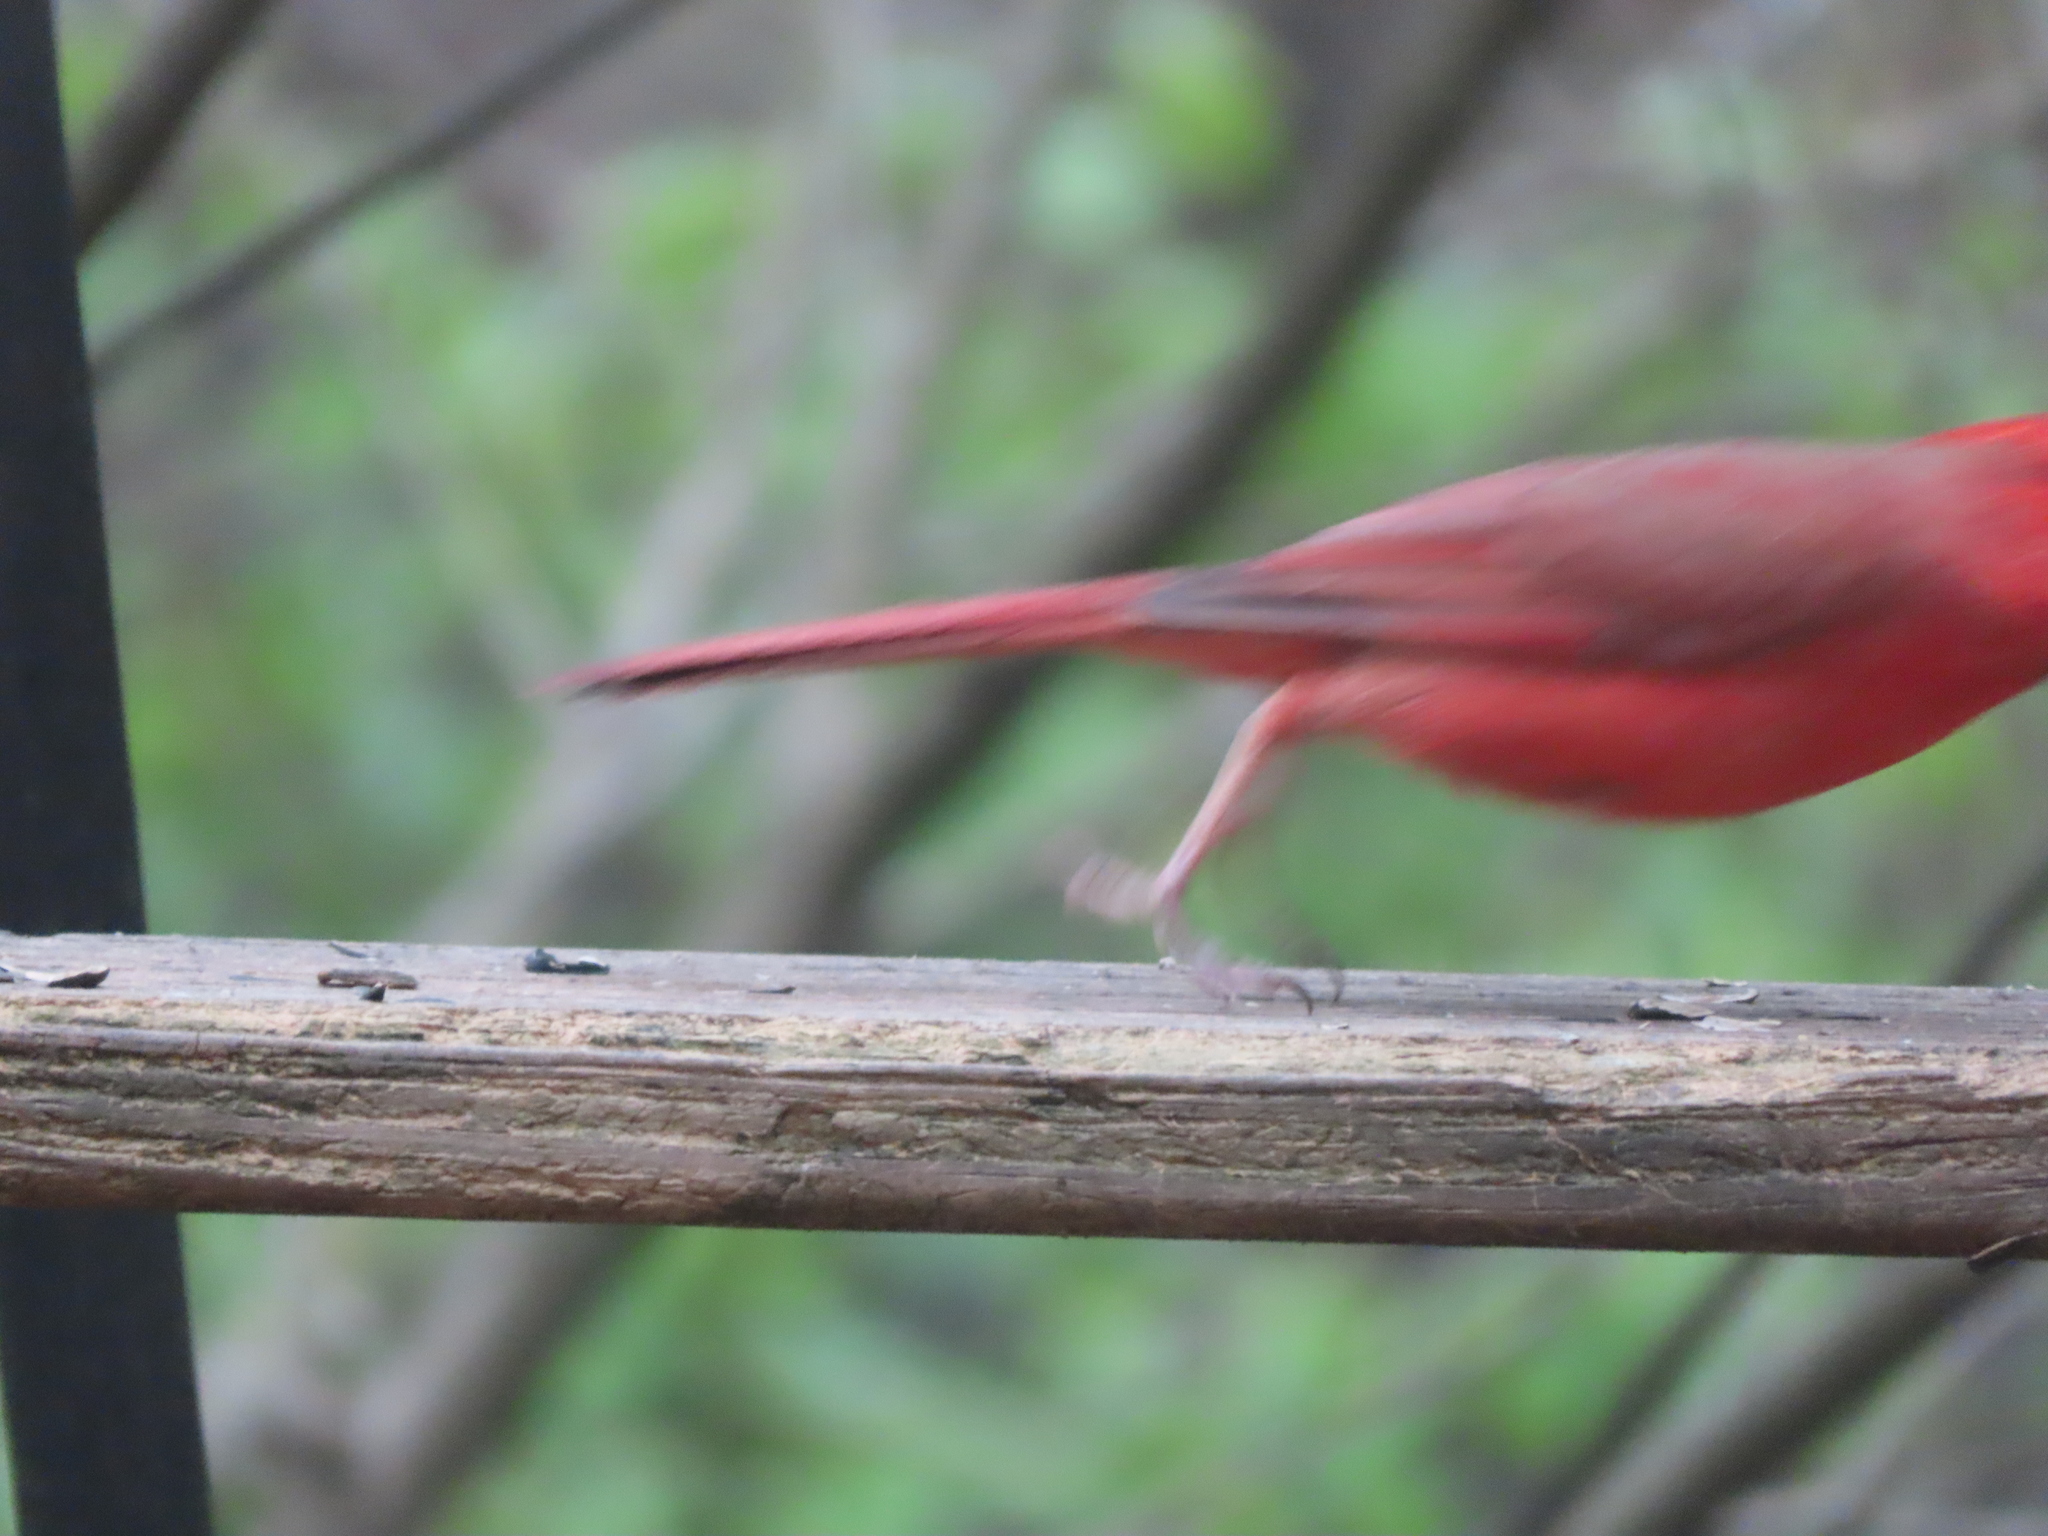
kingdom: Animalia
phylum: Chordata
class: Aves
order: Passeriformes
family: Cardinalidae
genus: Cardinalis
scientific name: Cardinalis cardinalis
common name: Northern cardinal
